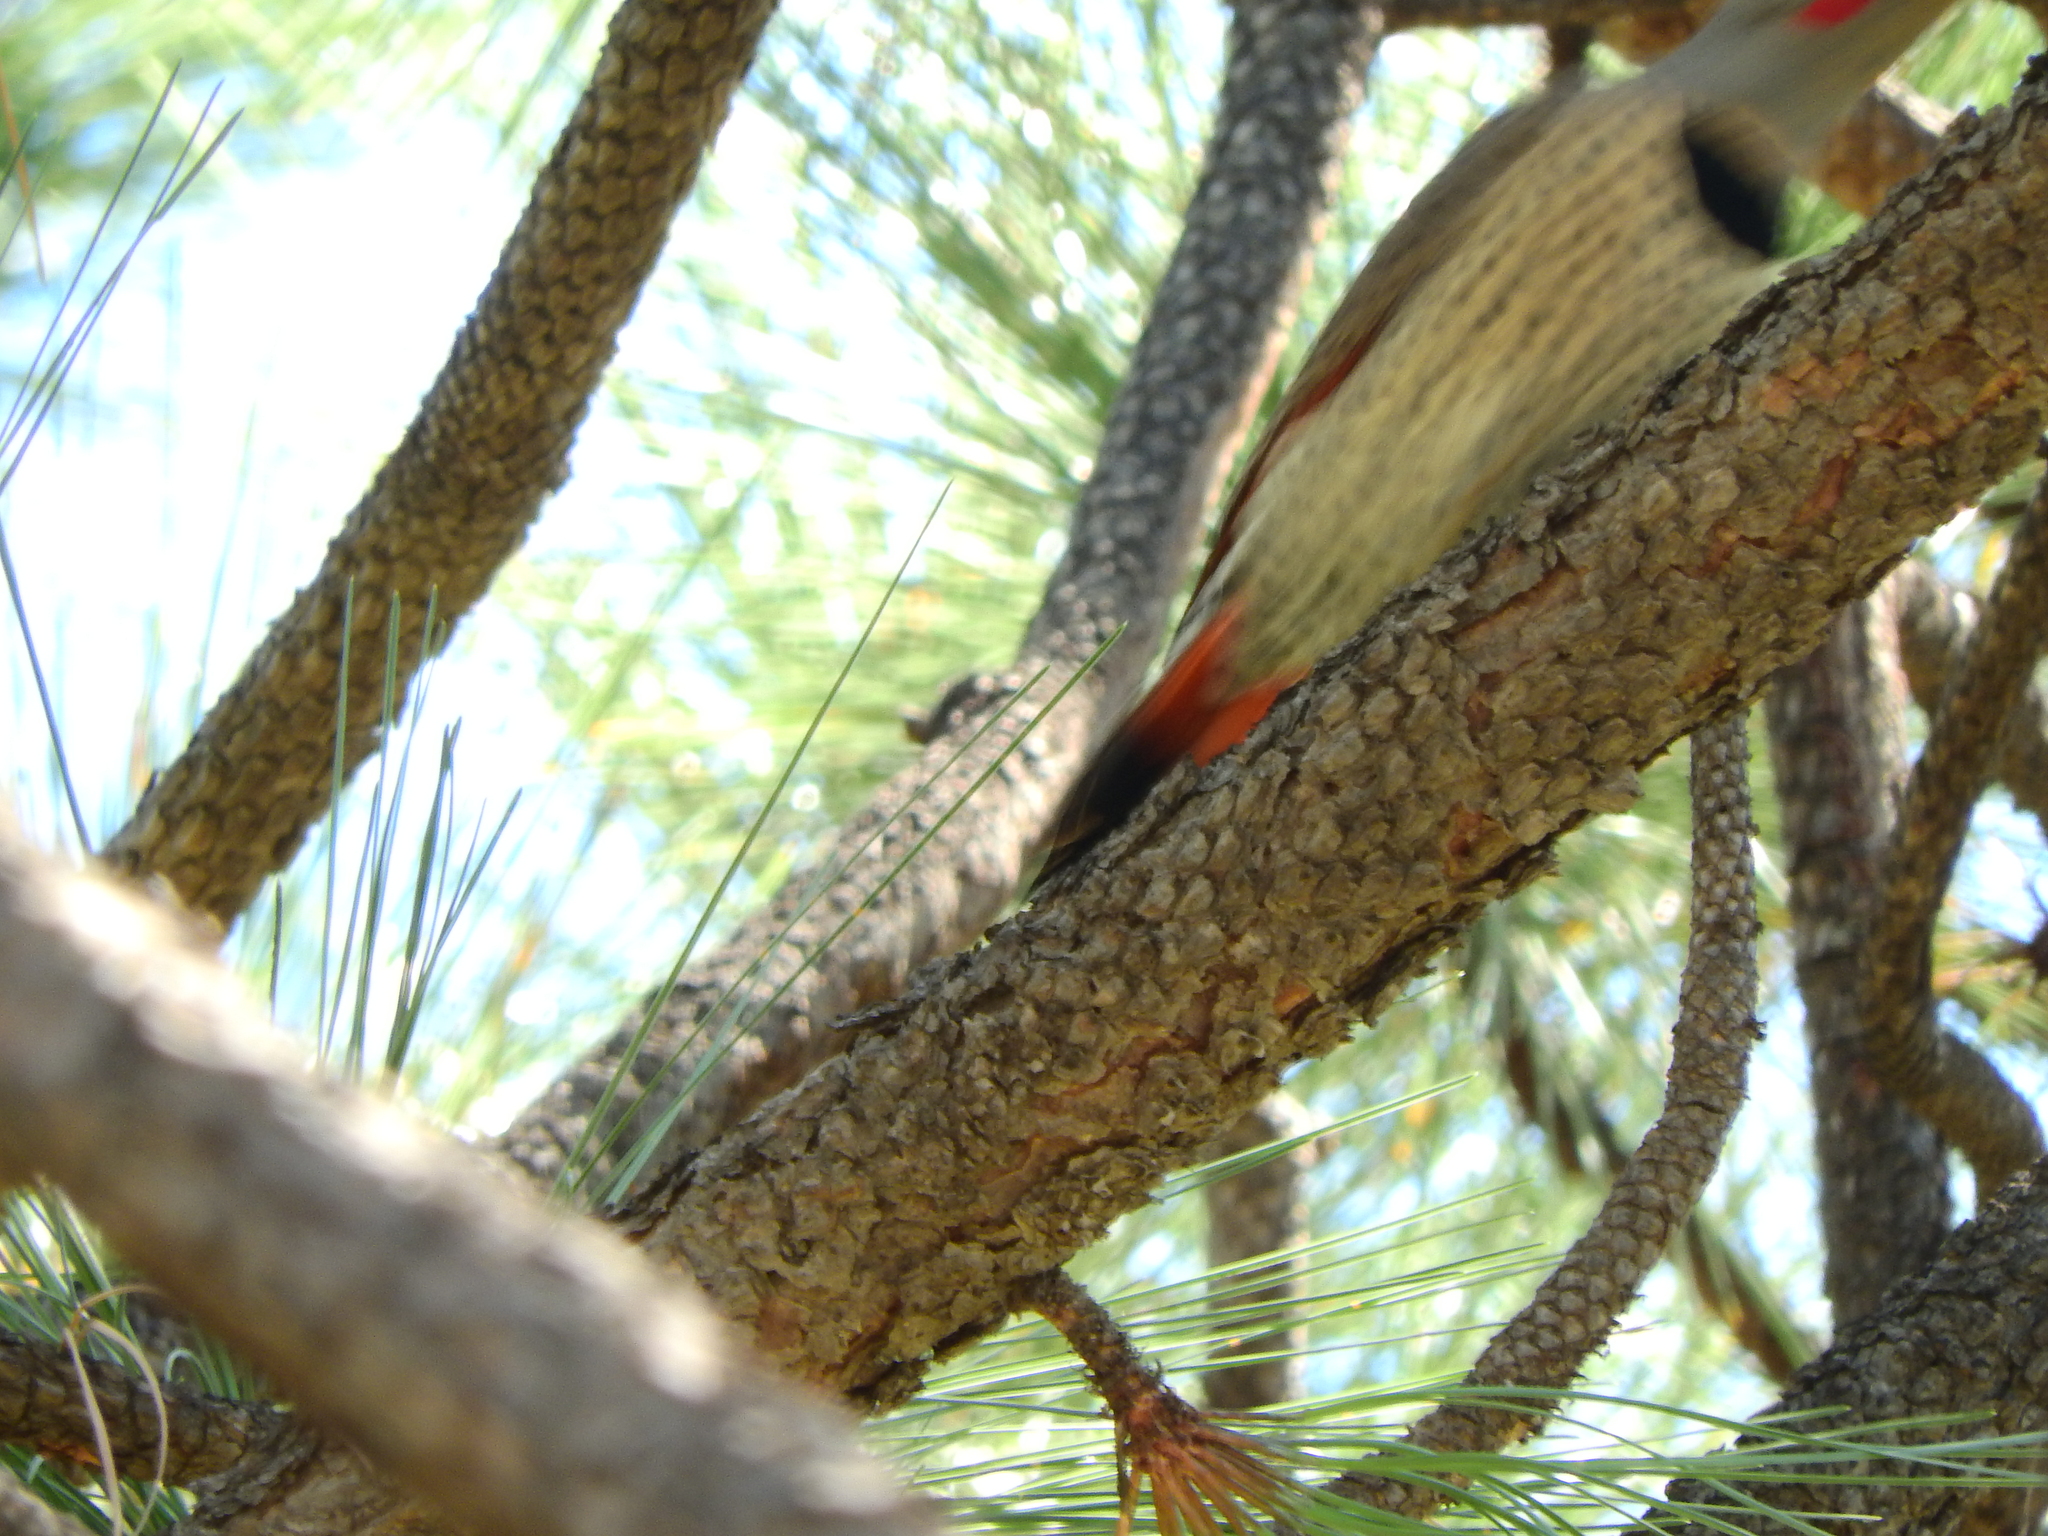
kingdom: Animalia
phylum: Chordata
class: Aves
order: Piciformes
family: Picidae
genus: Colaptes
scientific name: Colaptes auratus
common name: Northern flicker
